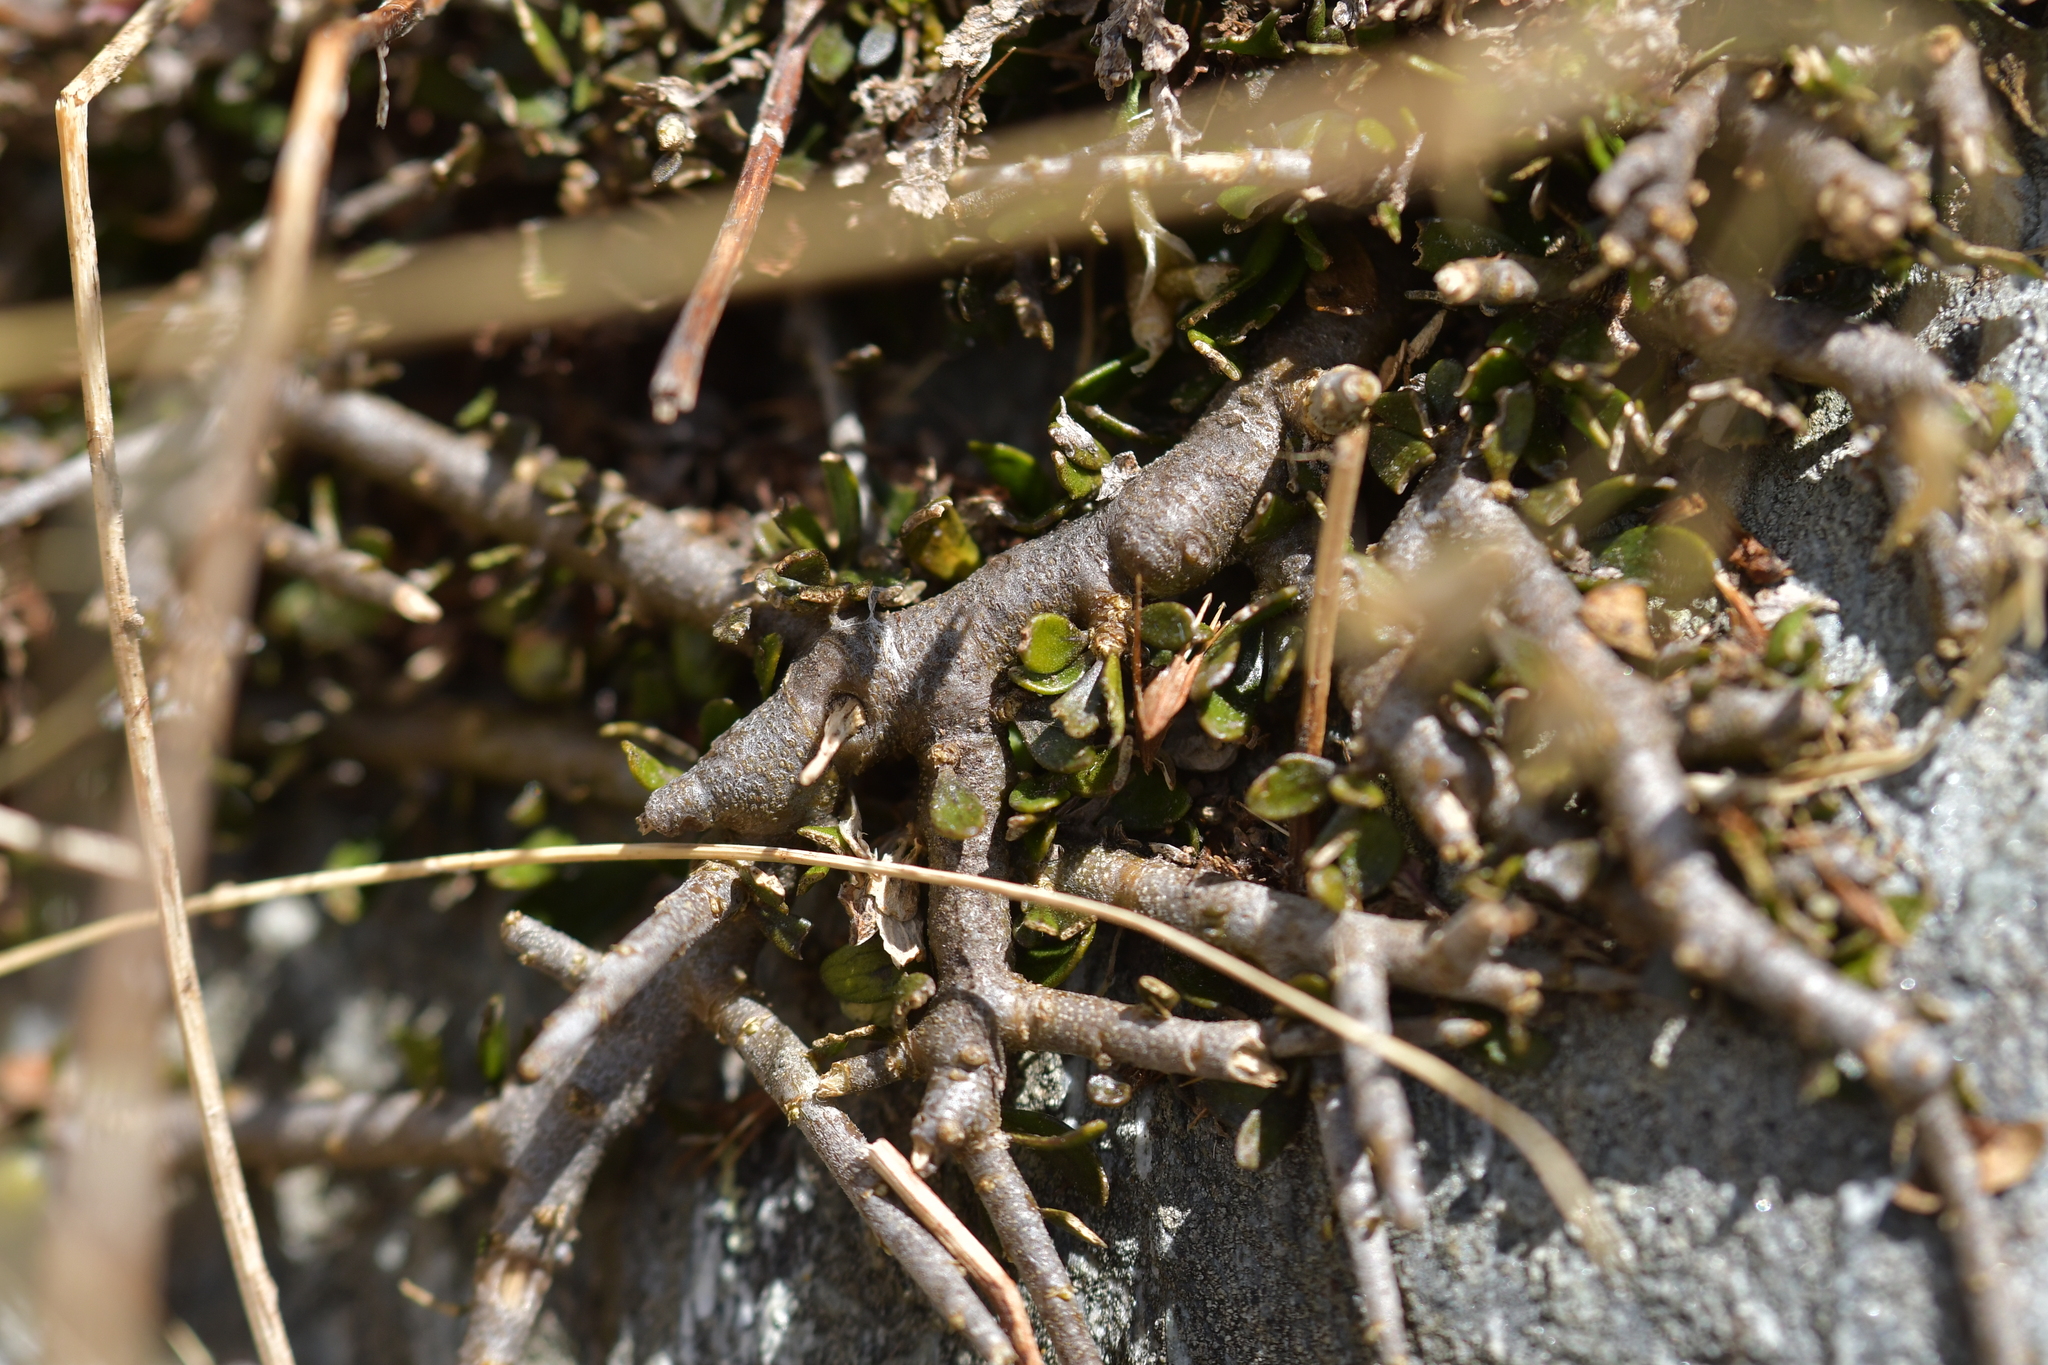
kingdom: Plantae
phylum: Tracheophyta
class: Magnoliopsida
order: Malpighiales
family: Violaceae
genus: Melicytus
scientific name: Melicytus alpinus
